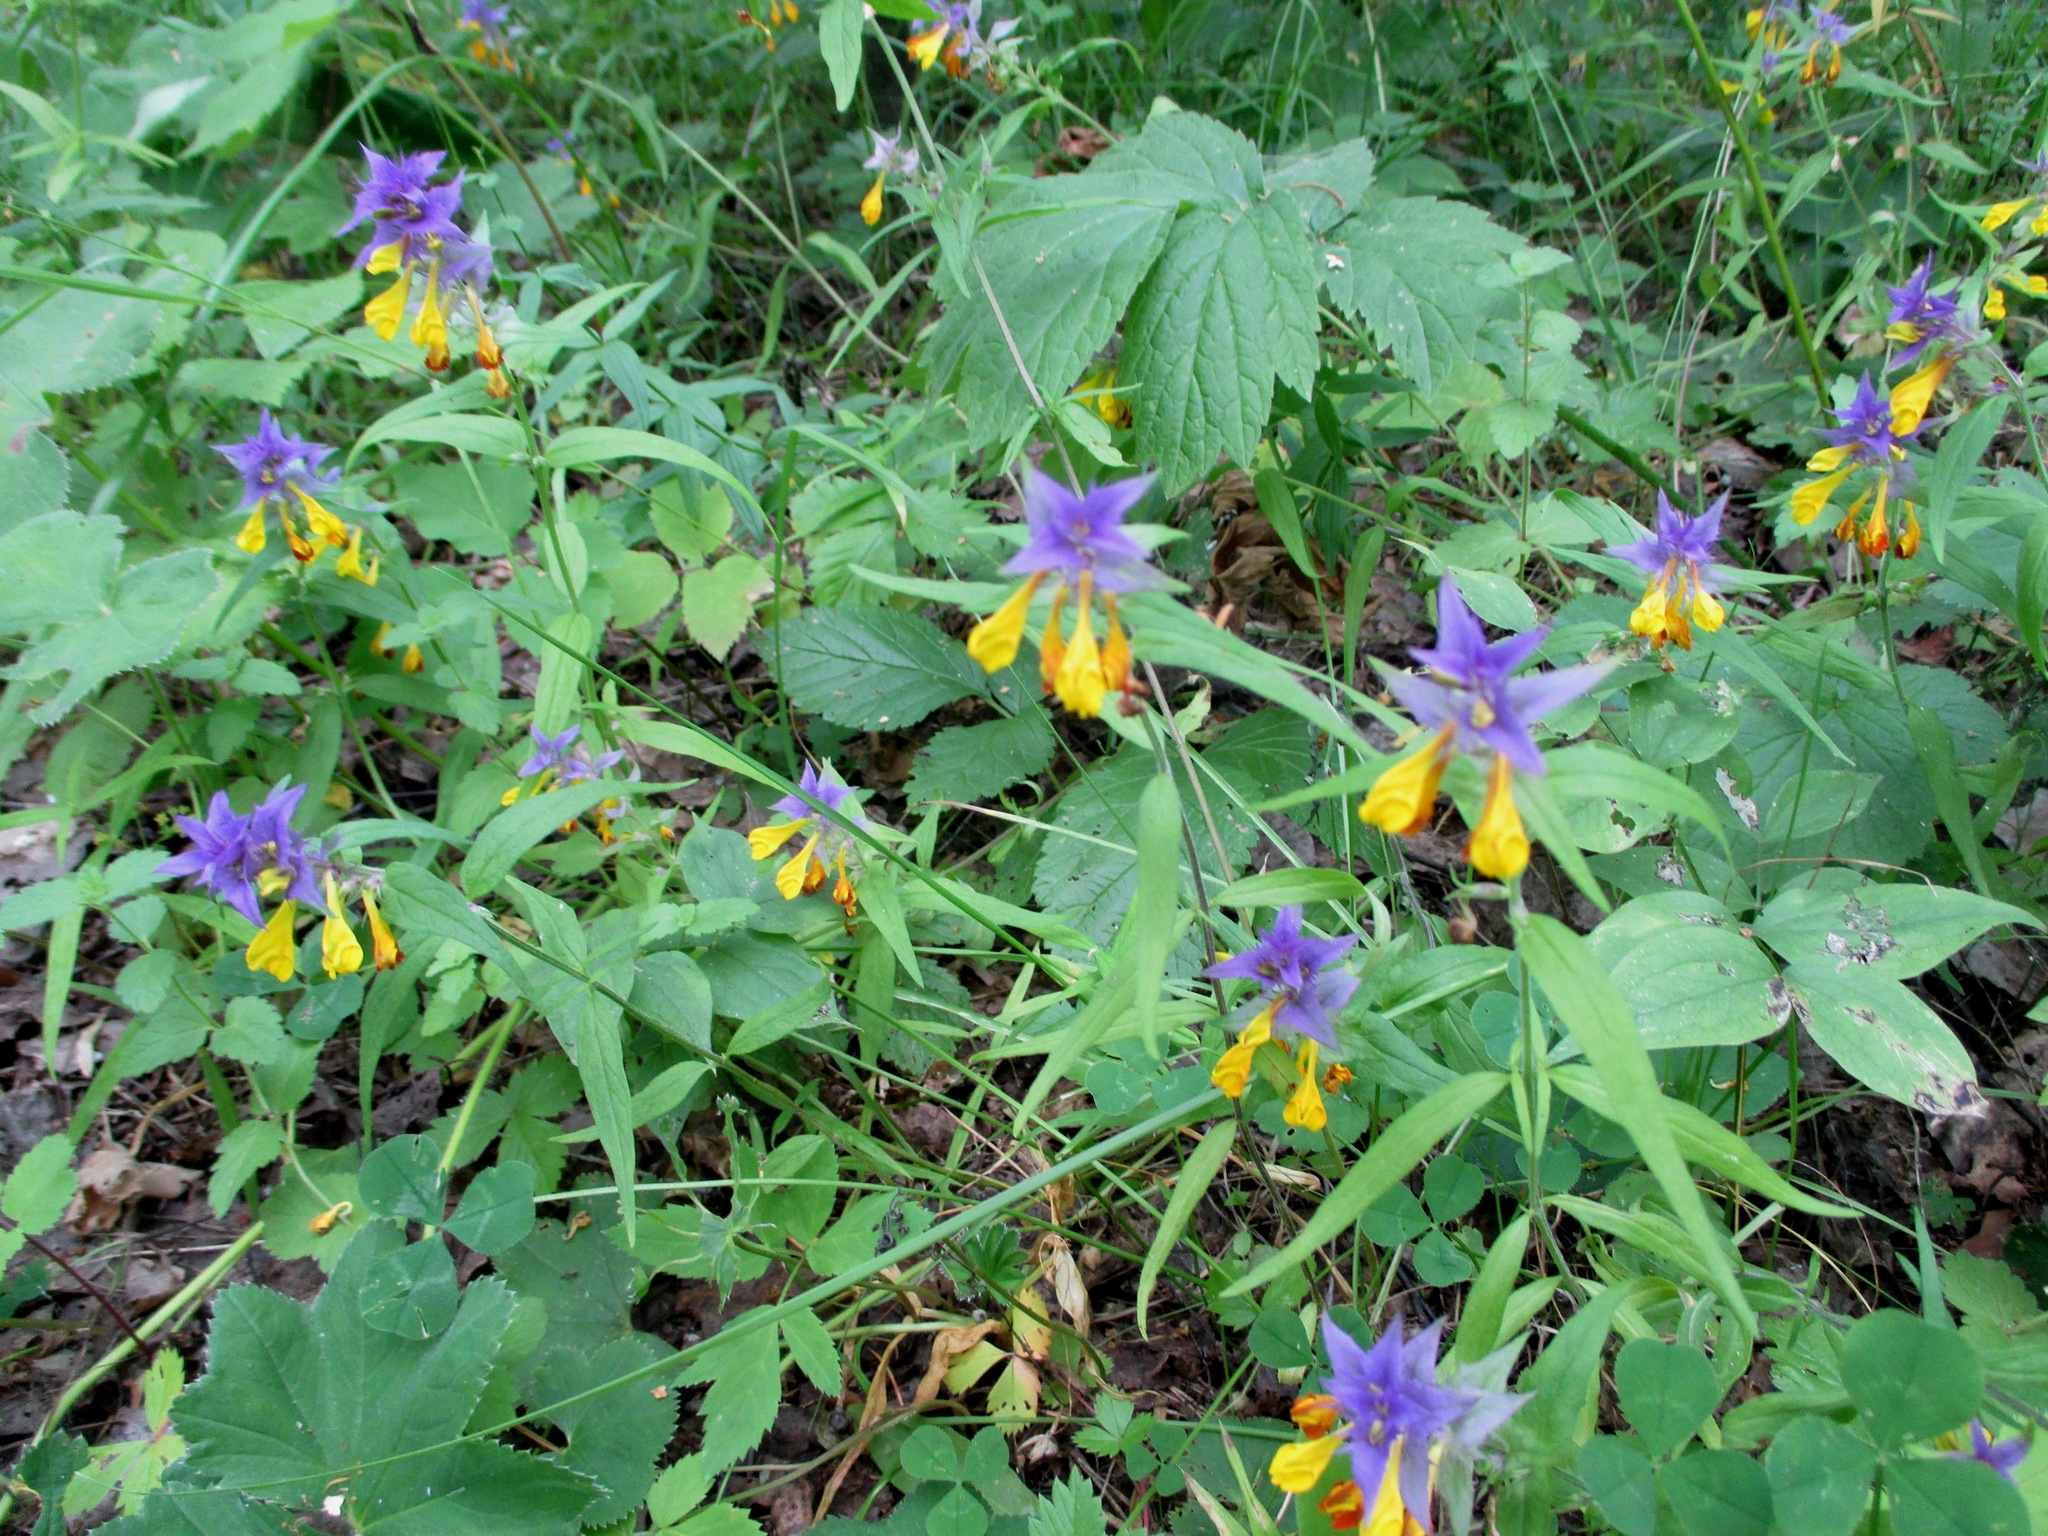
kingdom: Plantae
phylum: Tracheophyta
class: Magnoliopsida
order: Lamiales
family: Orobanchaceae
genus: Melampyrum
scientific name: Melampyrum polonicum
